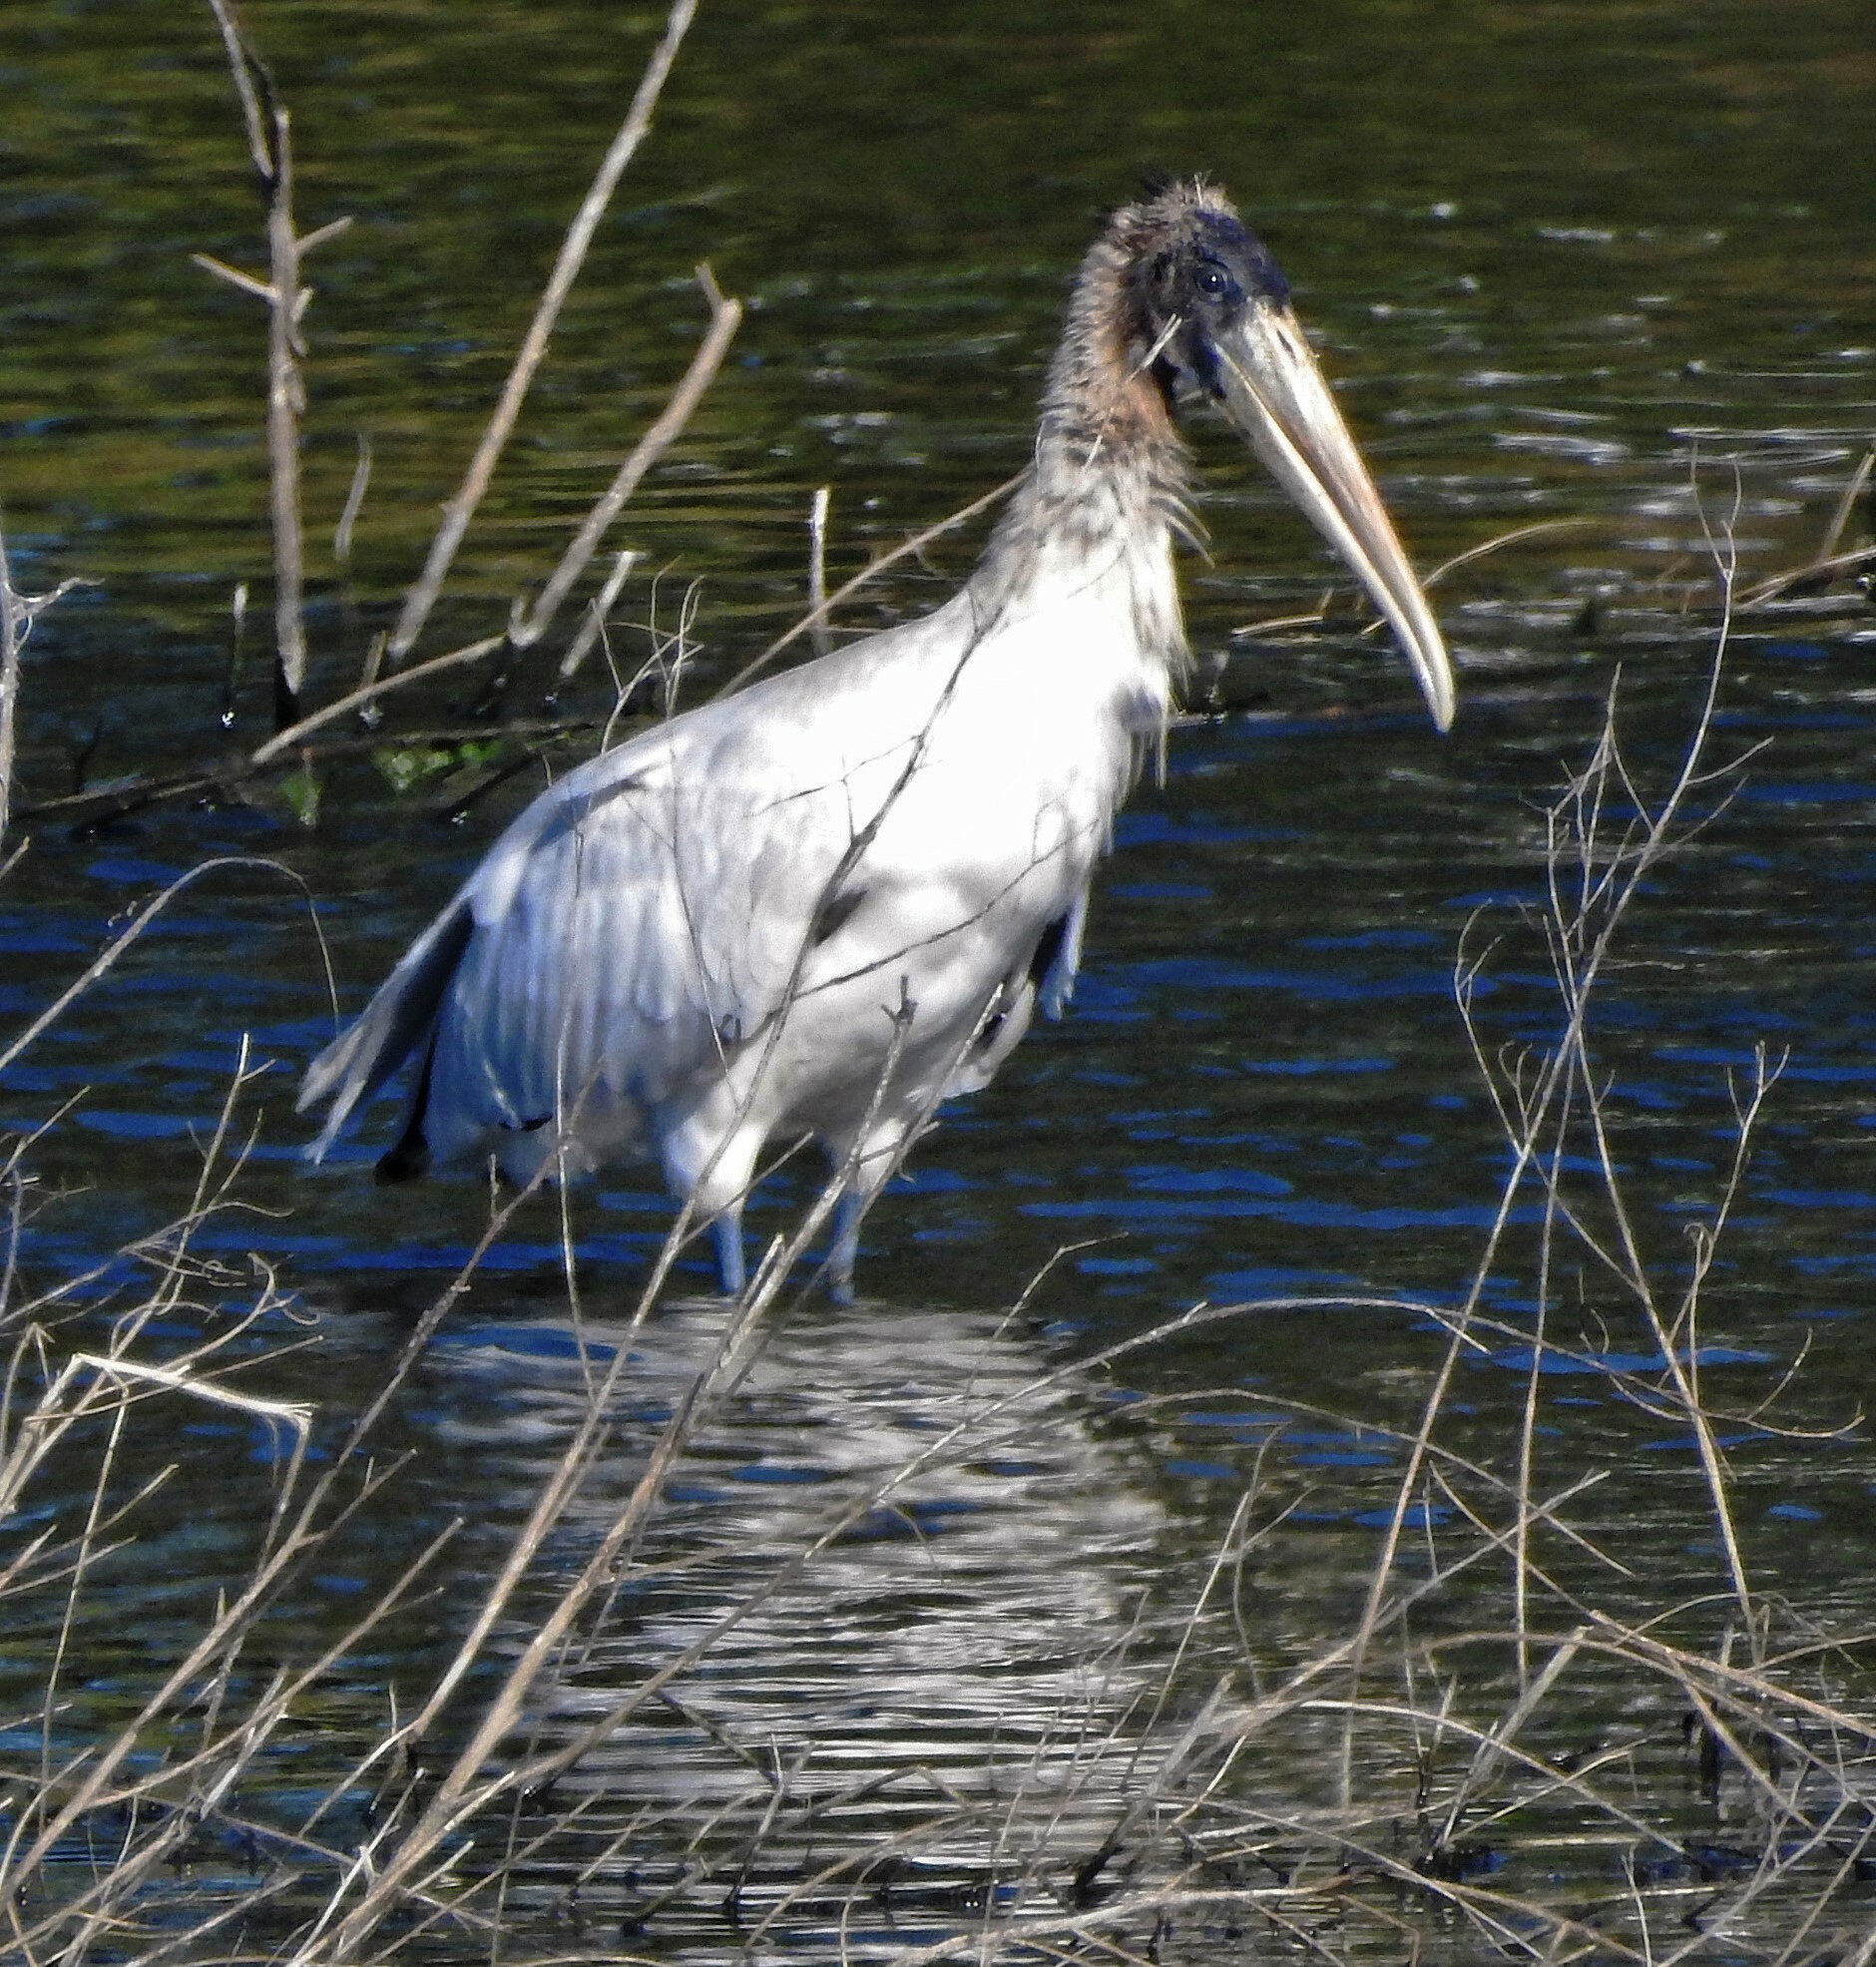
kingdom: Animalia
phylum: Chordata
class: Aves
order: Ciconiiformes
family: Ciconiidae
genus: Mycteria
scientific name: Mycteria americana
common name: Wood stork
